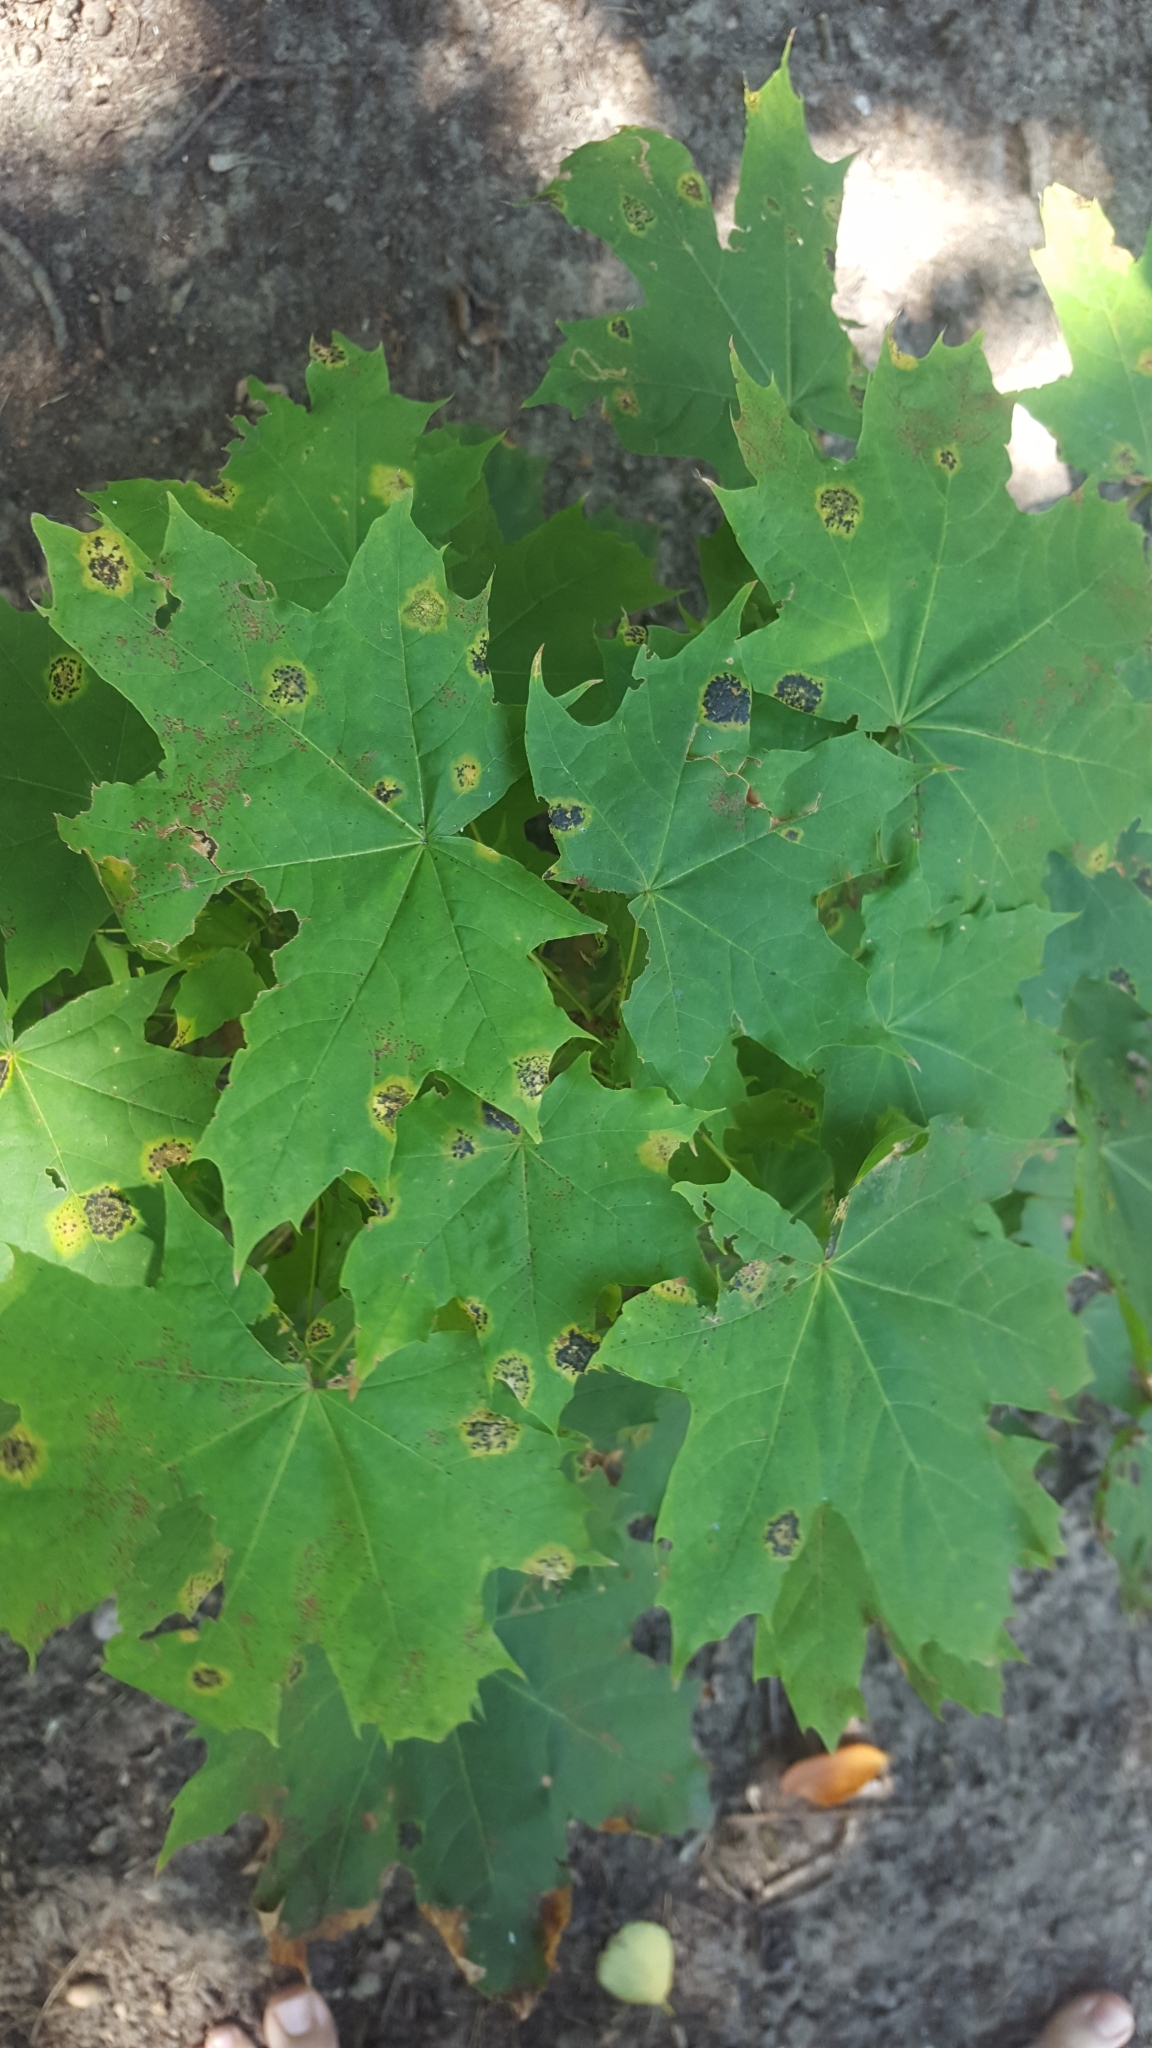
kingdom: Plantae
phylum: Tracheophyta
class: Magnoliopsida
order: Sapindales
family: Sapindaceae
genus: Acer
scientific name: Acer platanoides
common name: Norway maple
